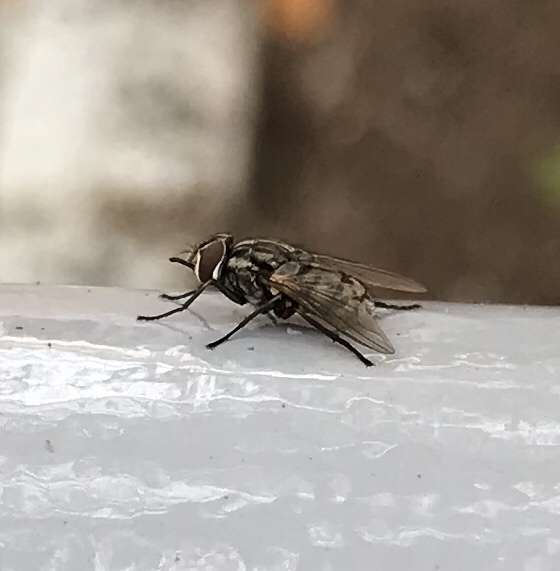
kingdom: Animalia
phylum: Arthropoda
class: Insecta
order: Diptera
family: Muscidae
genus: Stomoxys
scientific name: Stomoxys calcitrans
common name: Stable fly
